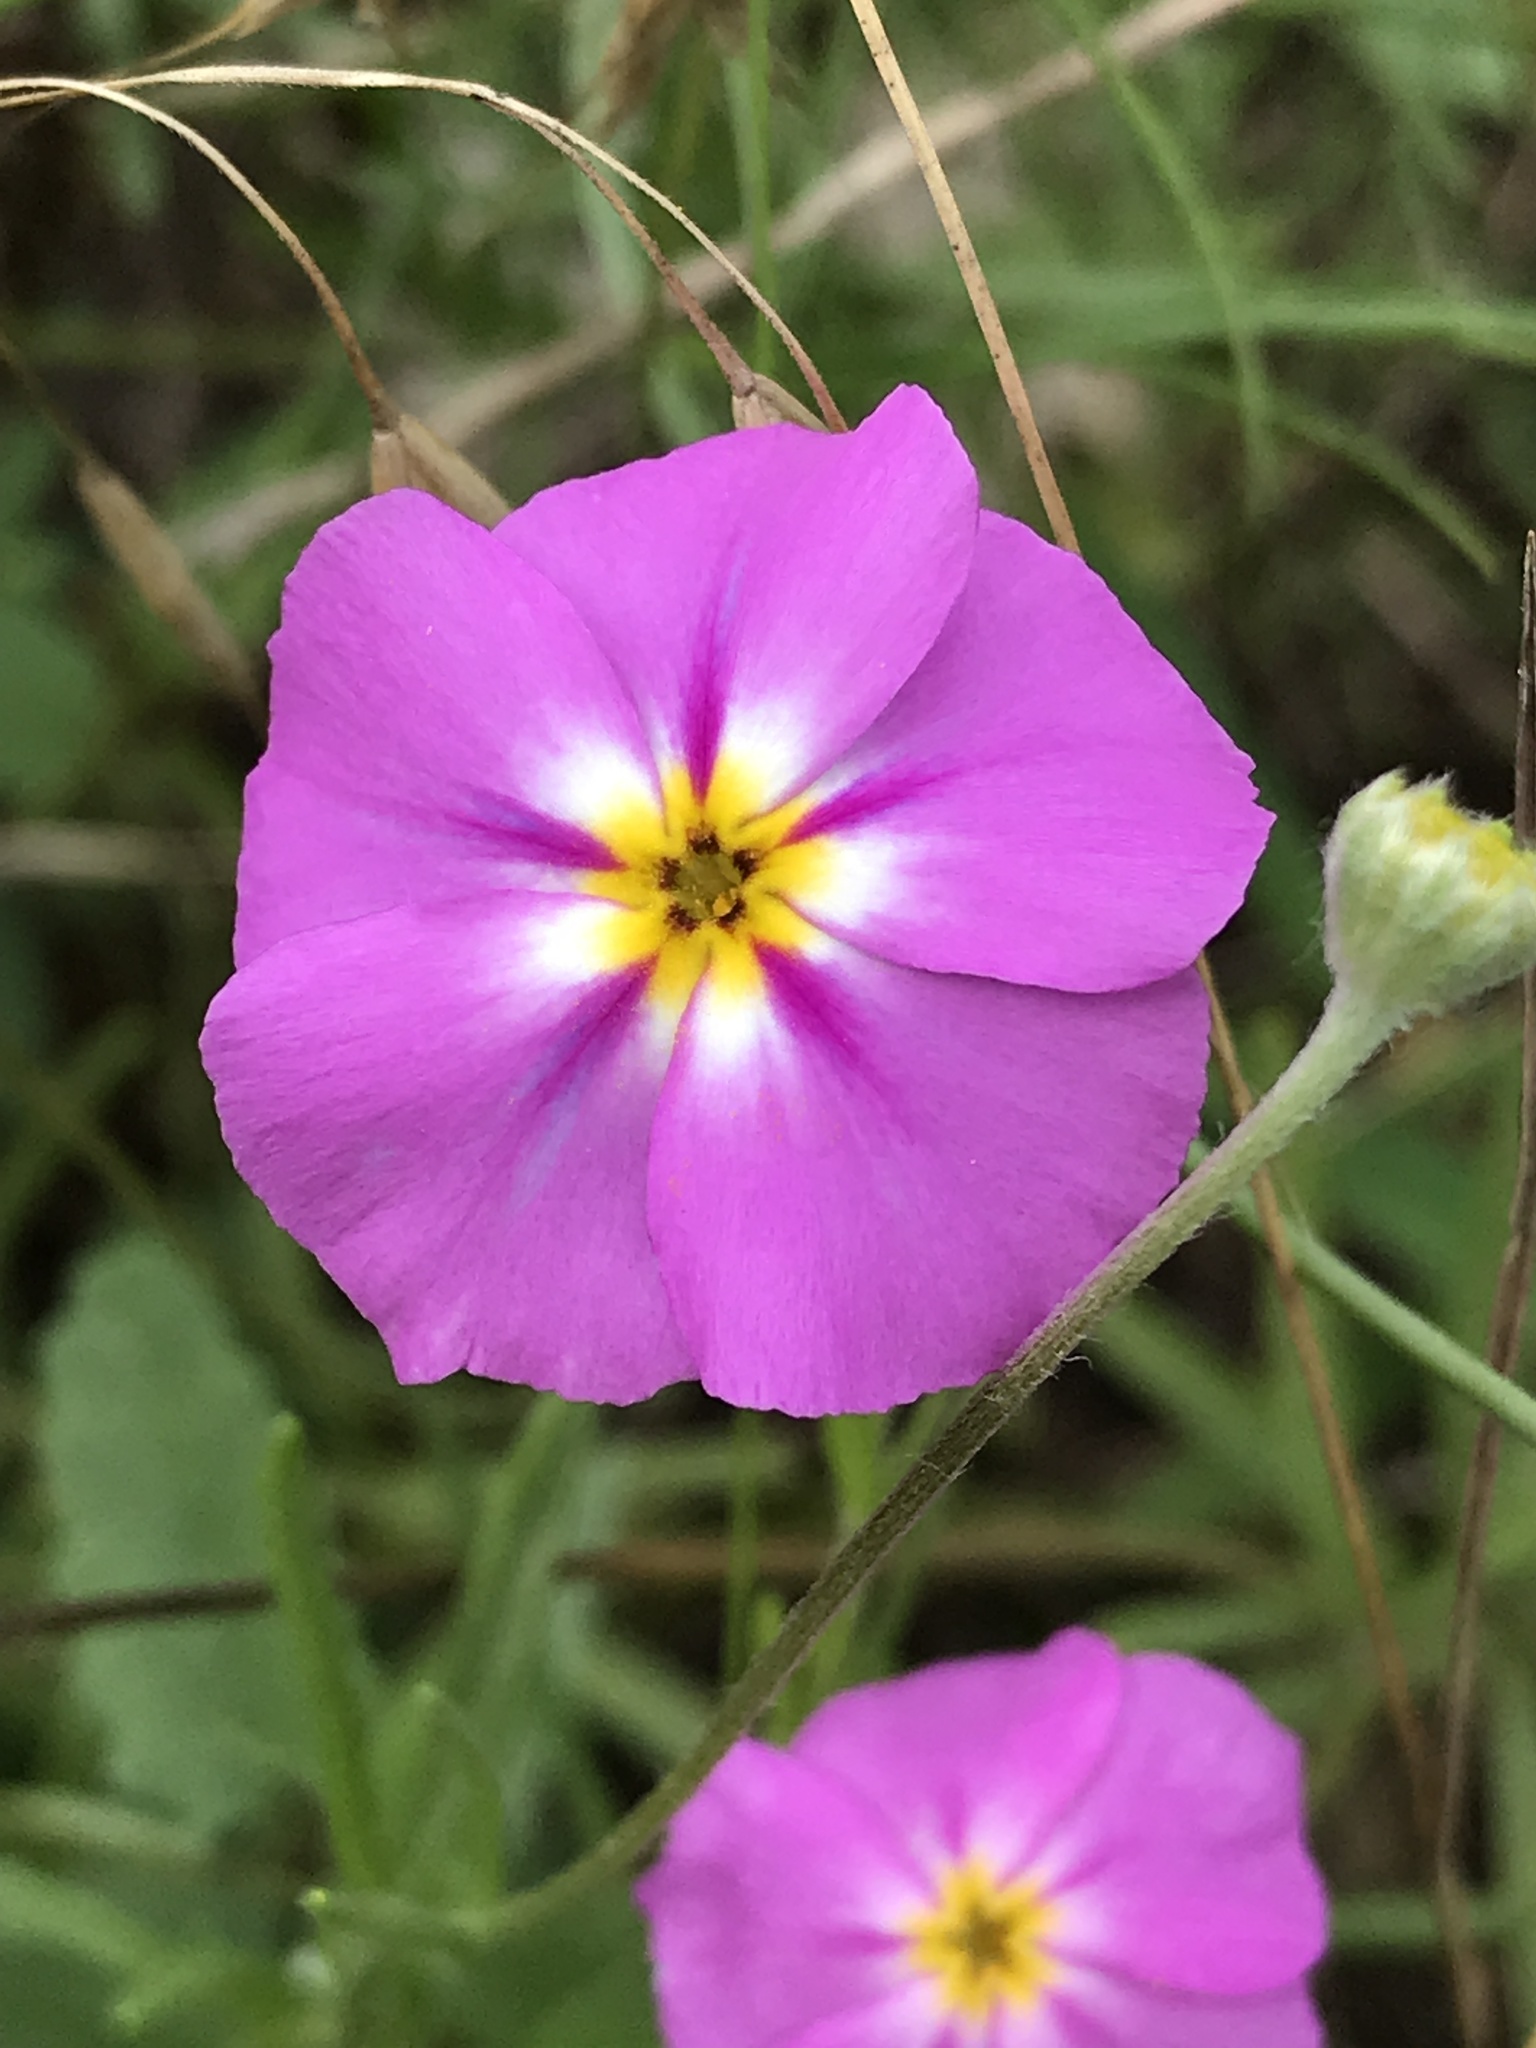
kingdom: Plantae
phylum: Tracheophyta
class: Magnoliopsida
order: Ericales
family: Polemoniaceae
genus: Phlox
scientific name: Phlox roemeriana
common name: Roemer's phlox
